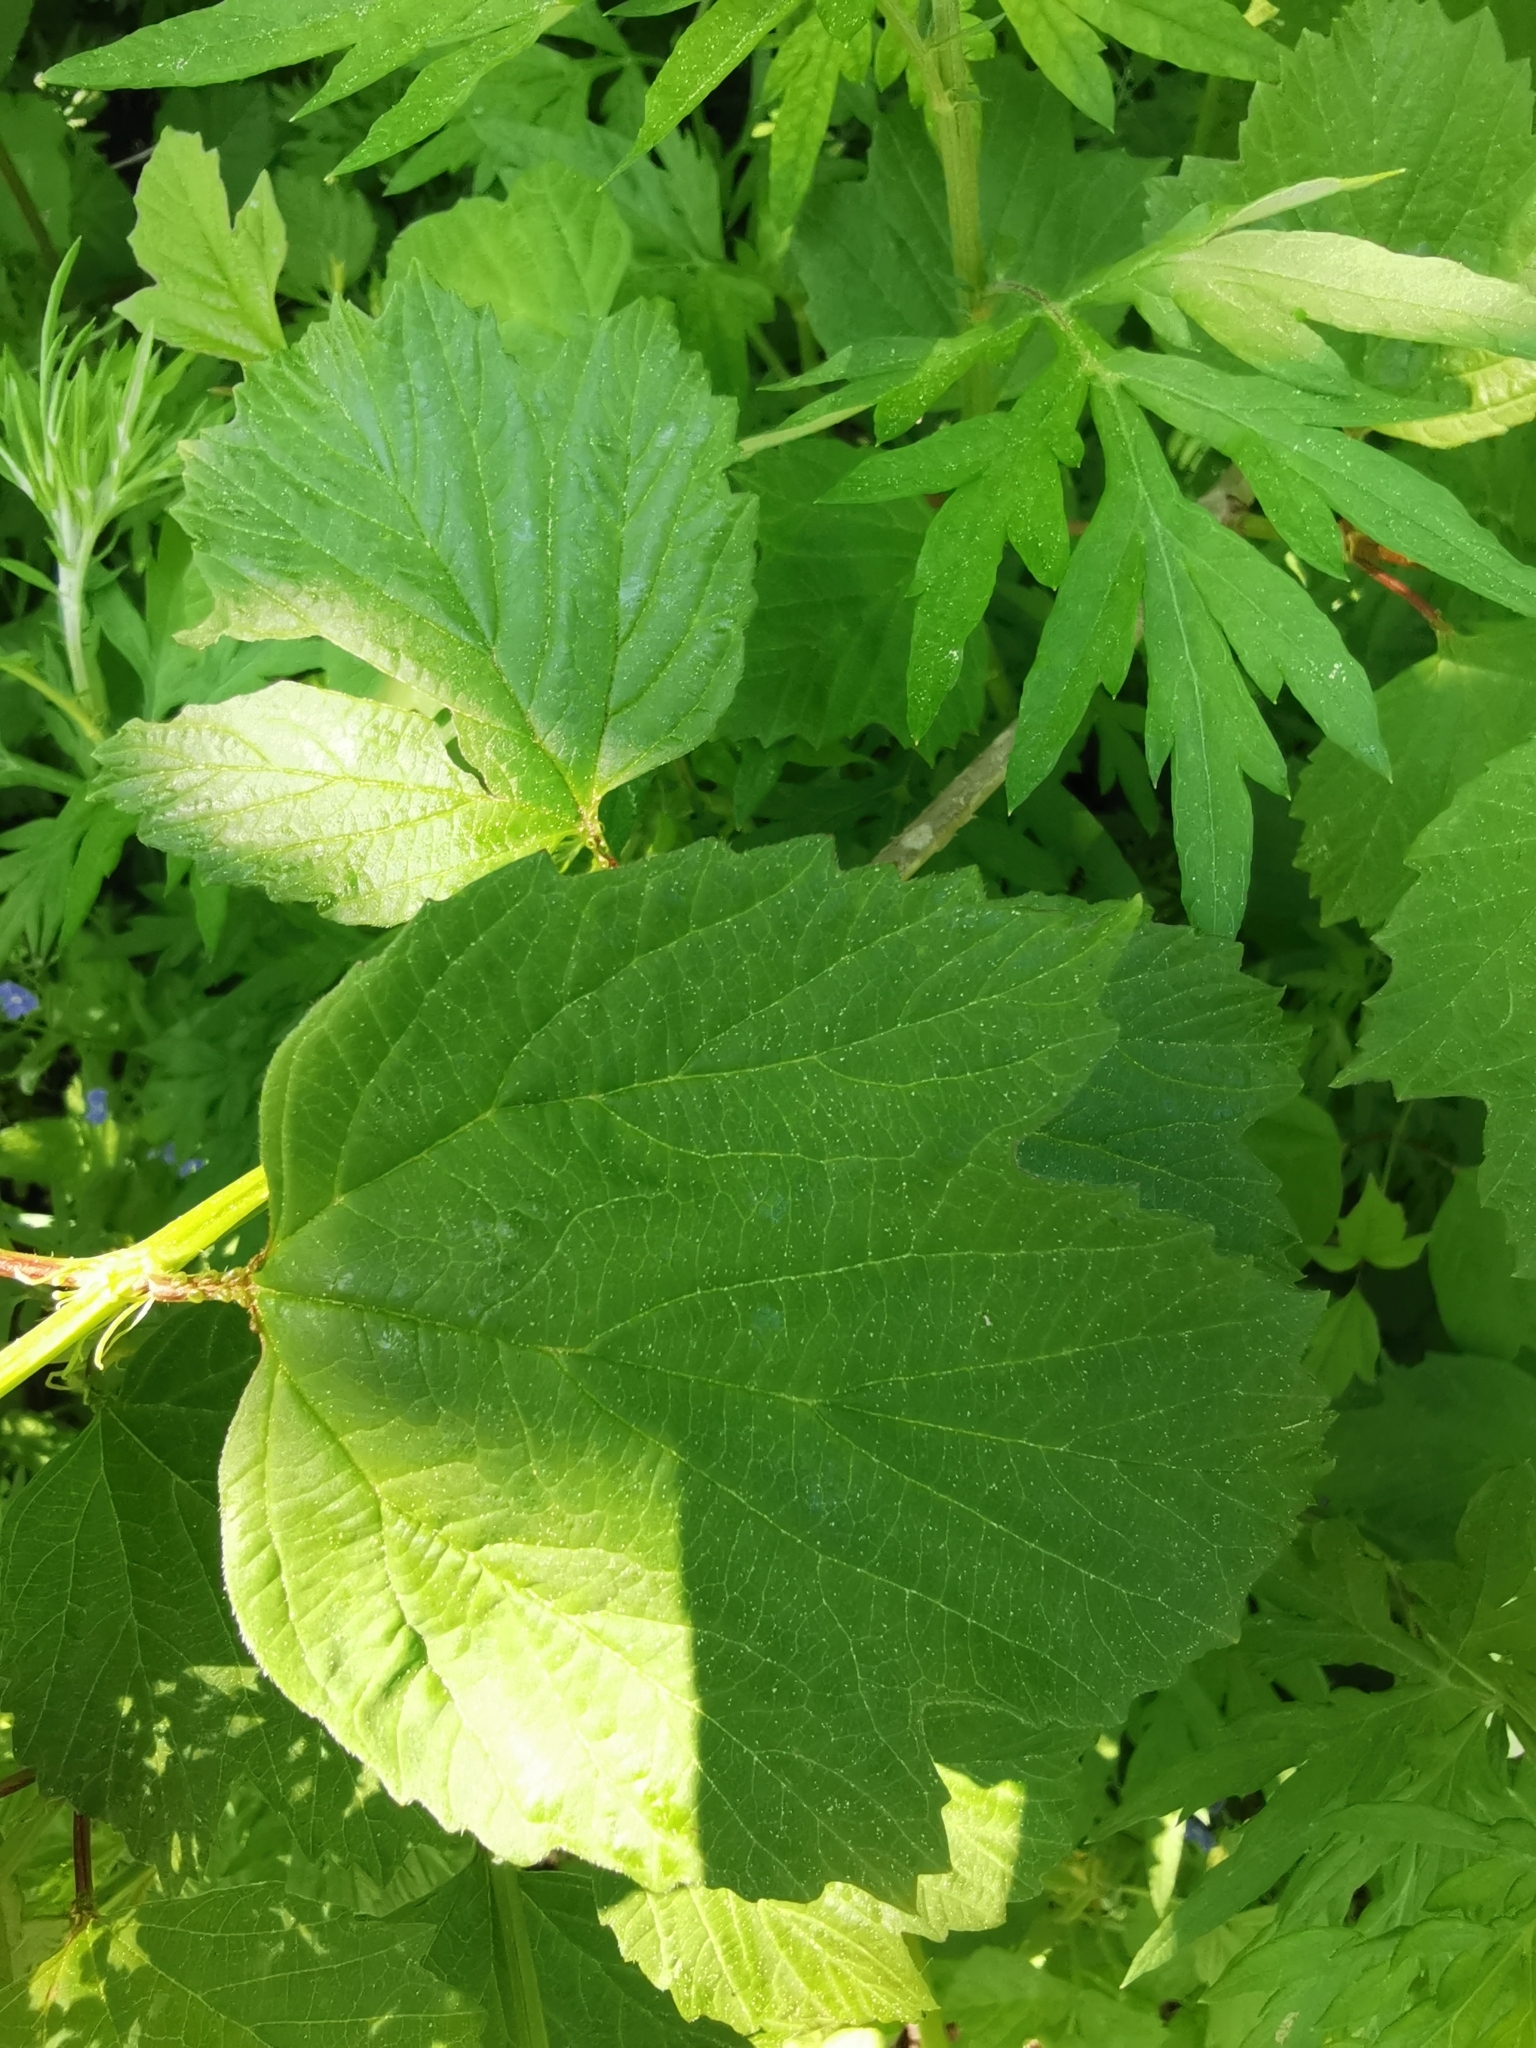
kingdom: Plantae
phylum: Tracheophyta
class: Magnoliopsida
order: Dipsacales
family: Viburnaceae
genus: Viburnum
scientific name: Viburnum opulus
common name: Guelder-rose
